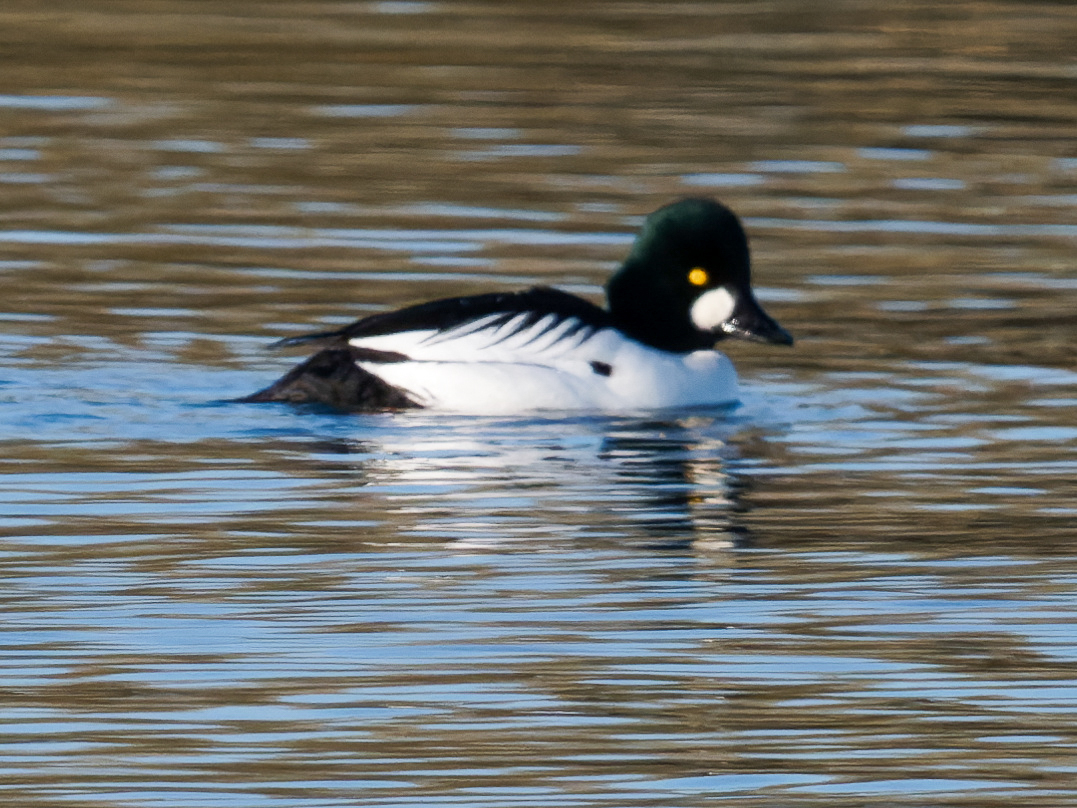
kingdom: Animalia
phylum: Chordata
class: Aves
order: Anseriformes
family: Anatidae
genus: Bucephala
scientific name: Bucephala clangula
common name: Common goldeneye
